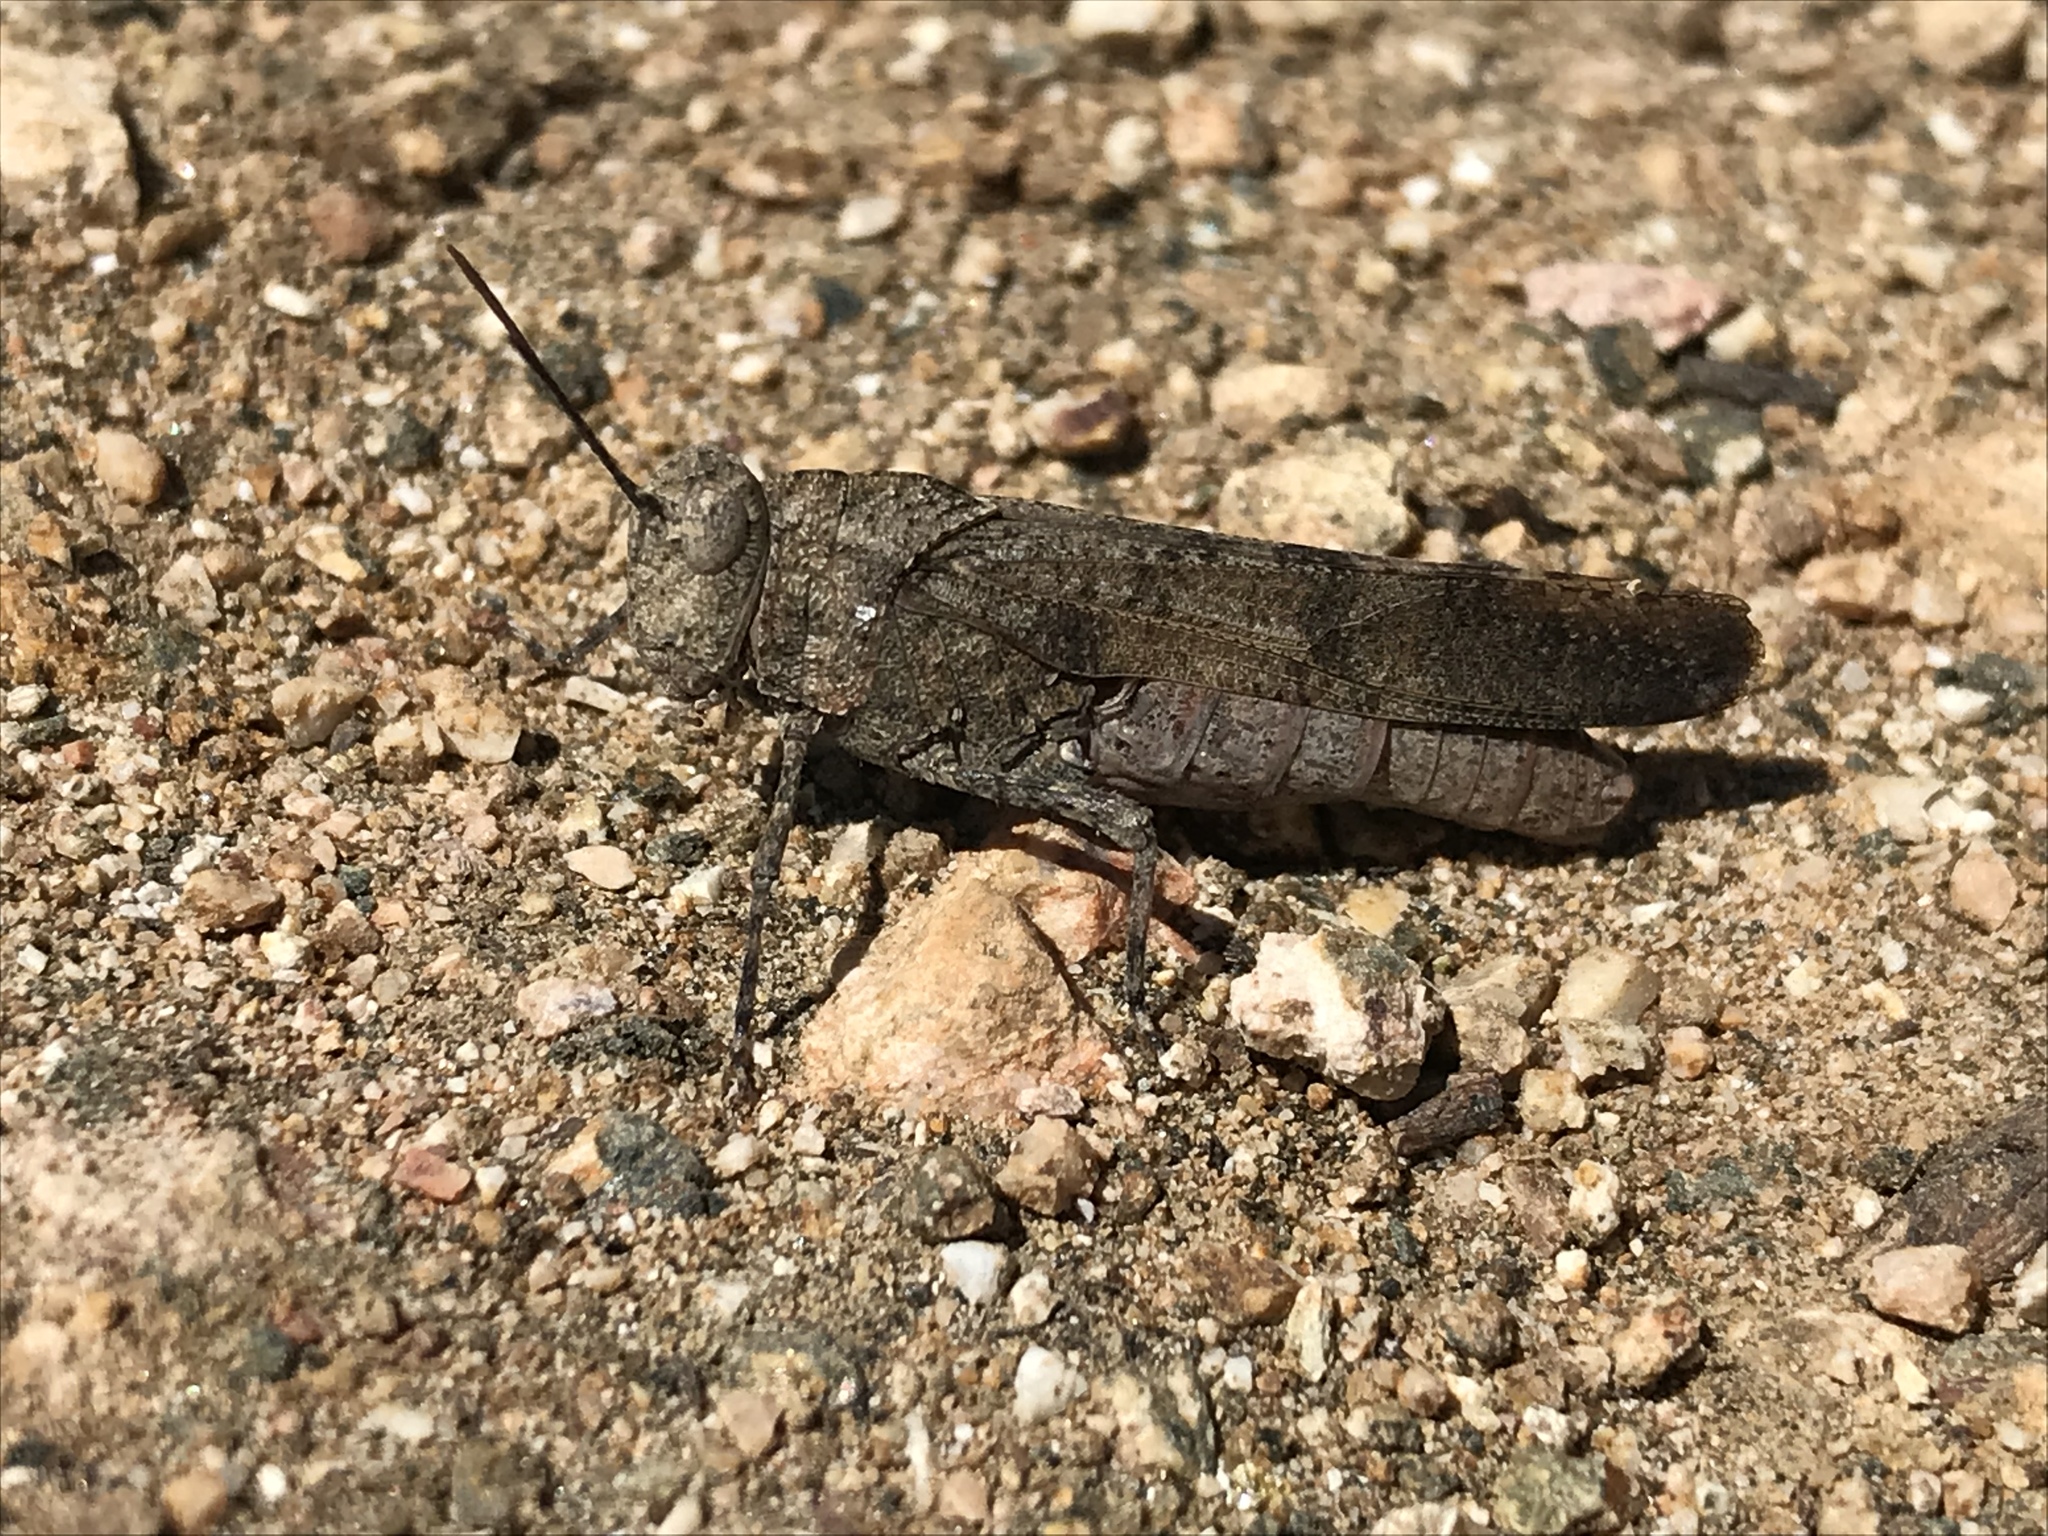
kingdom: Animalia
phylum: Arthropoda
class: Insecta
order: Orthoptera
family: Acrididae
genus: Lactista
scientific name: Lactista gibbosus
